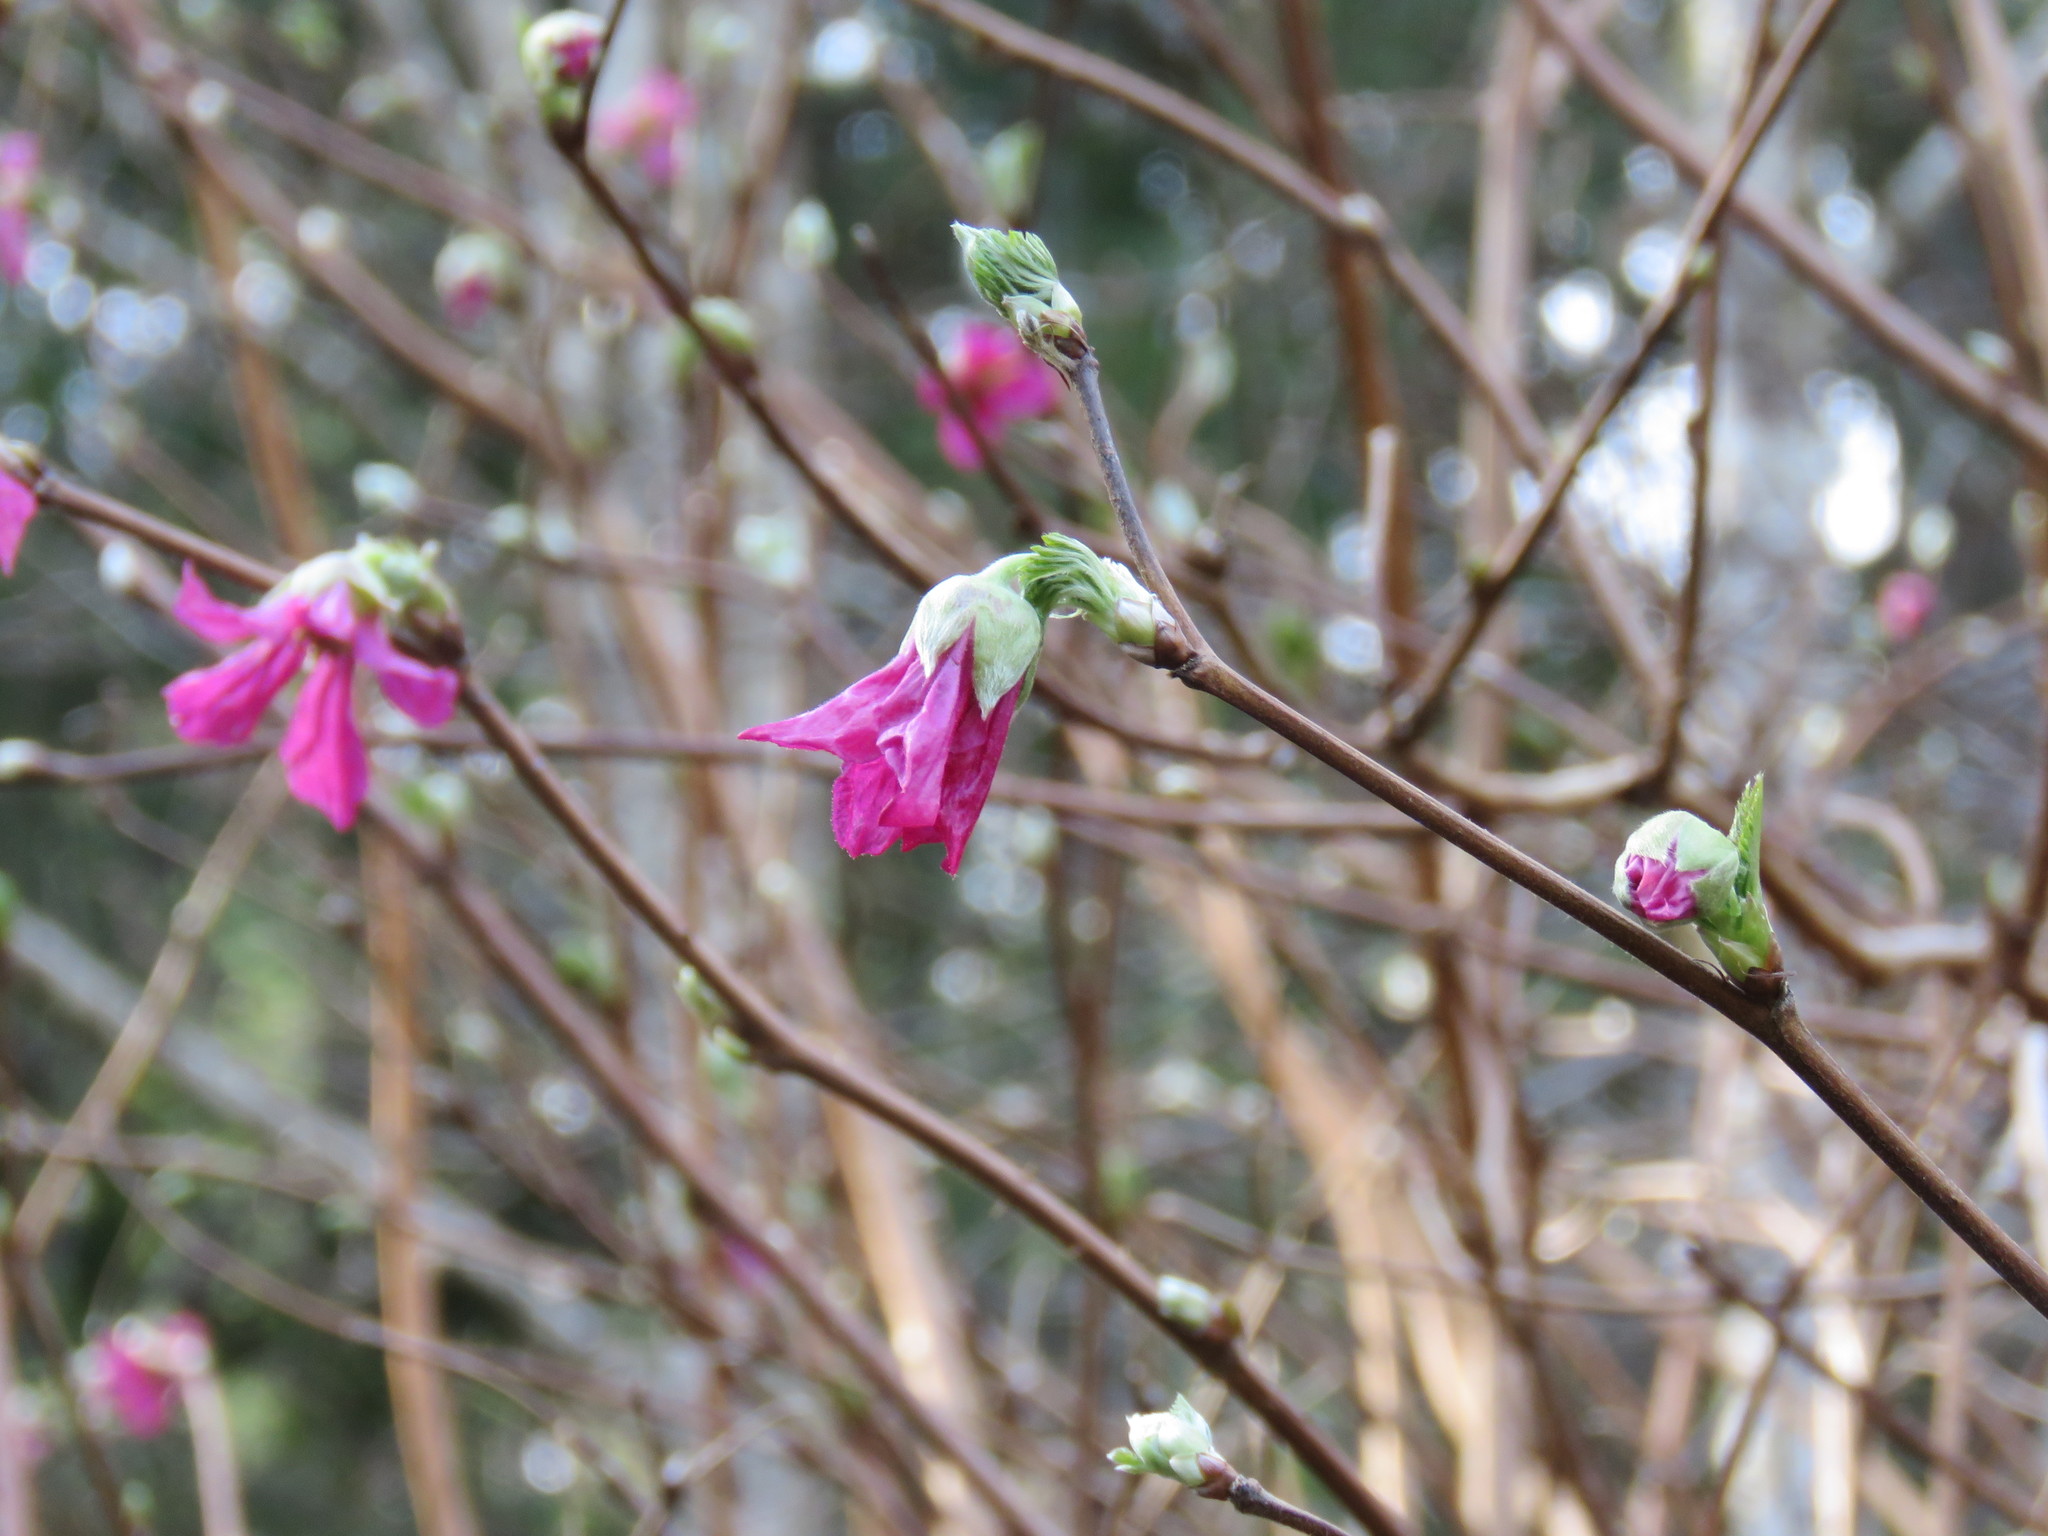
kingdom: Plantae
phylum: Tracheophyta
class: Magnoliopsida
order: Rosales
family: Rosaceae
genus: Rubus
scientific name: Rubus spectabilis
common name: Salmonberry
